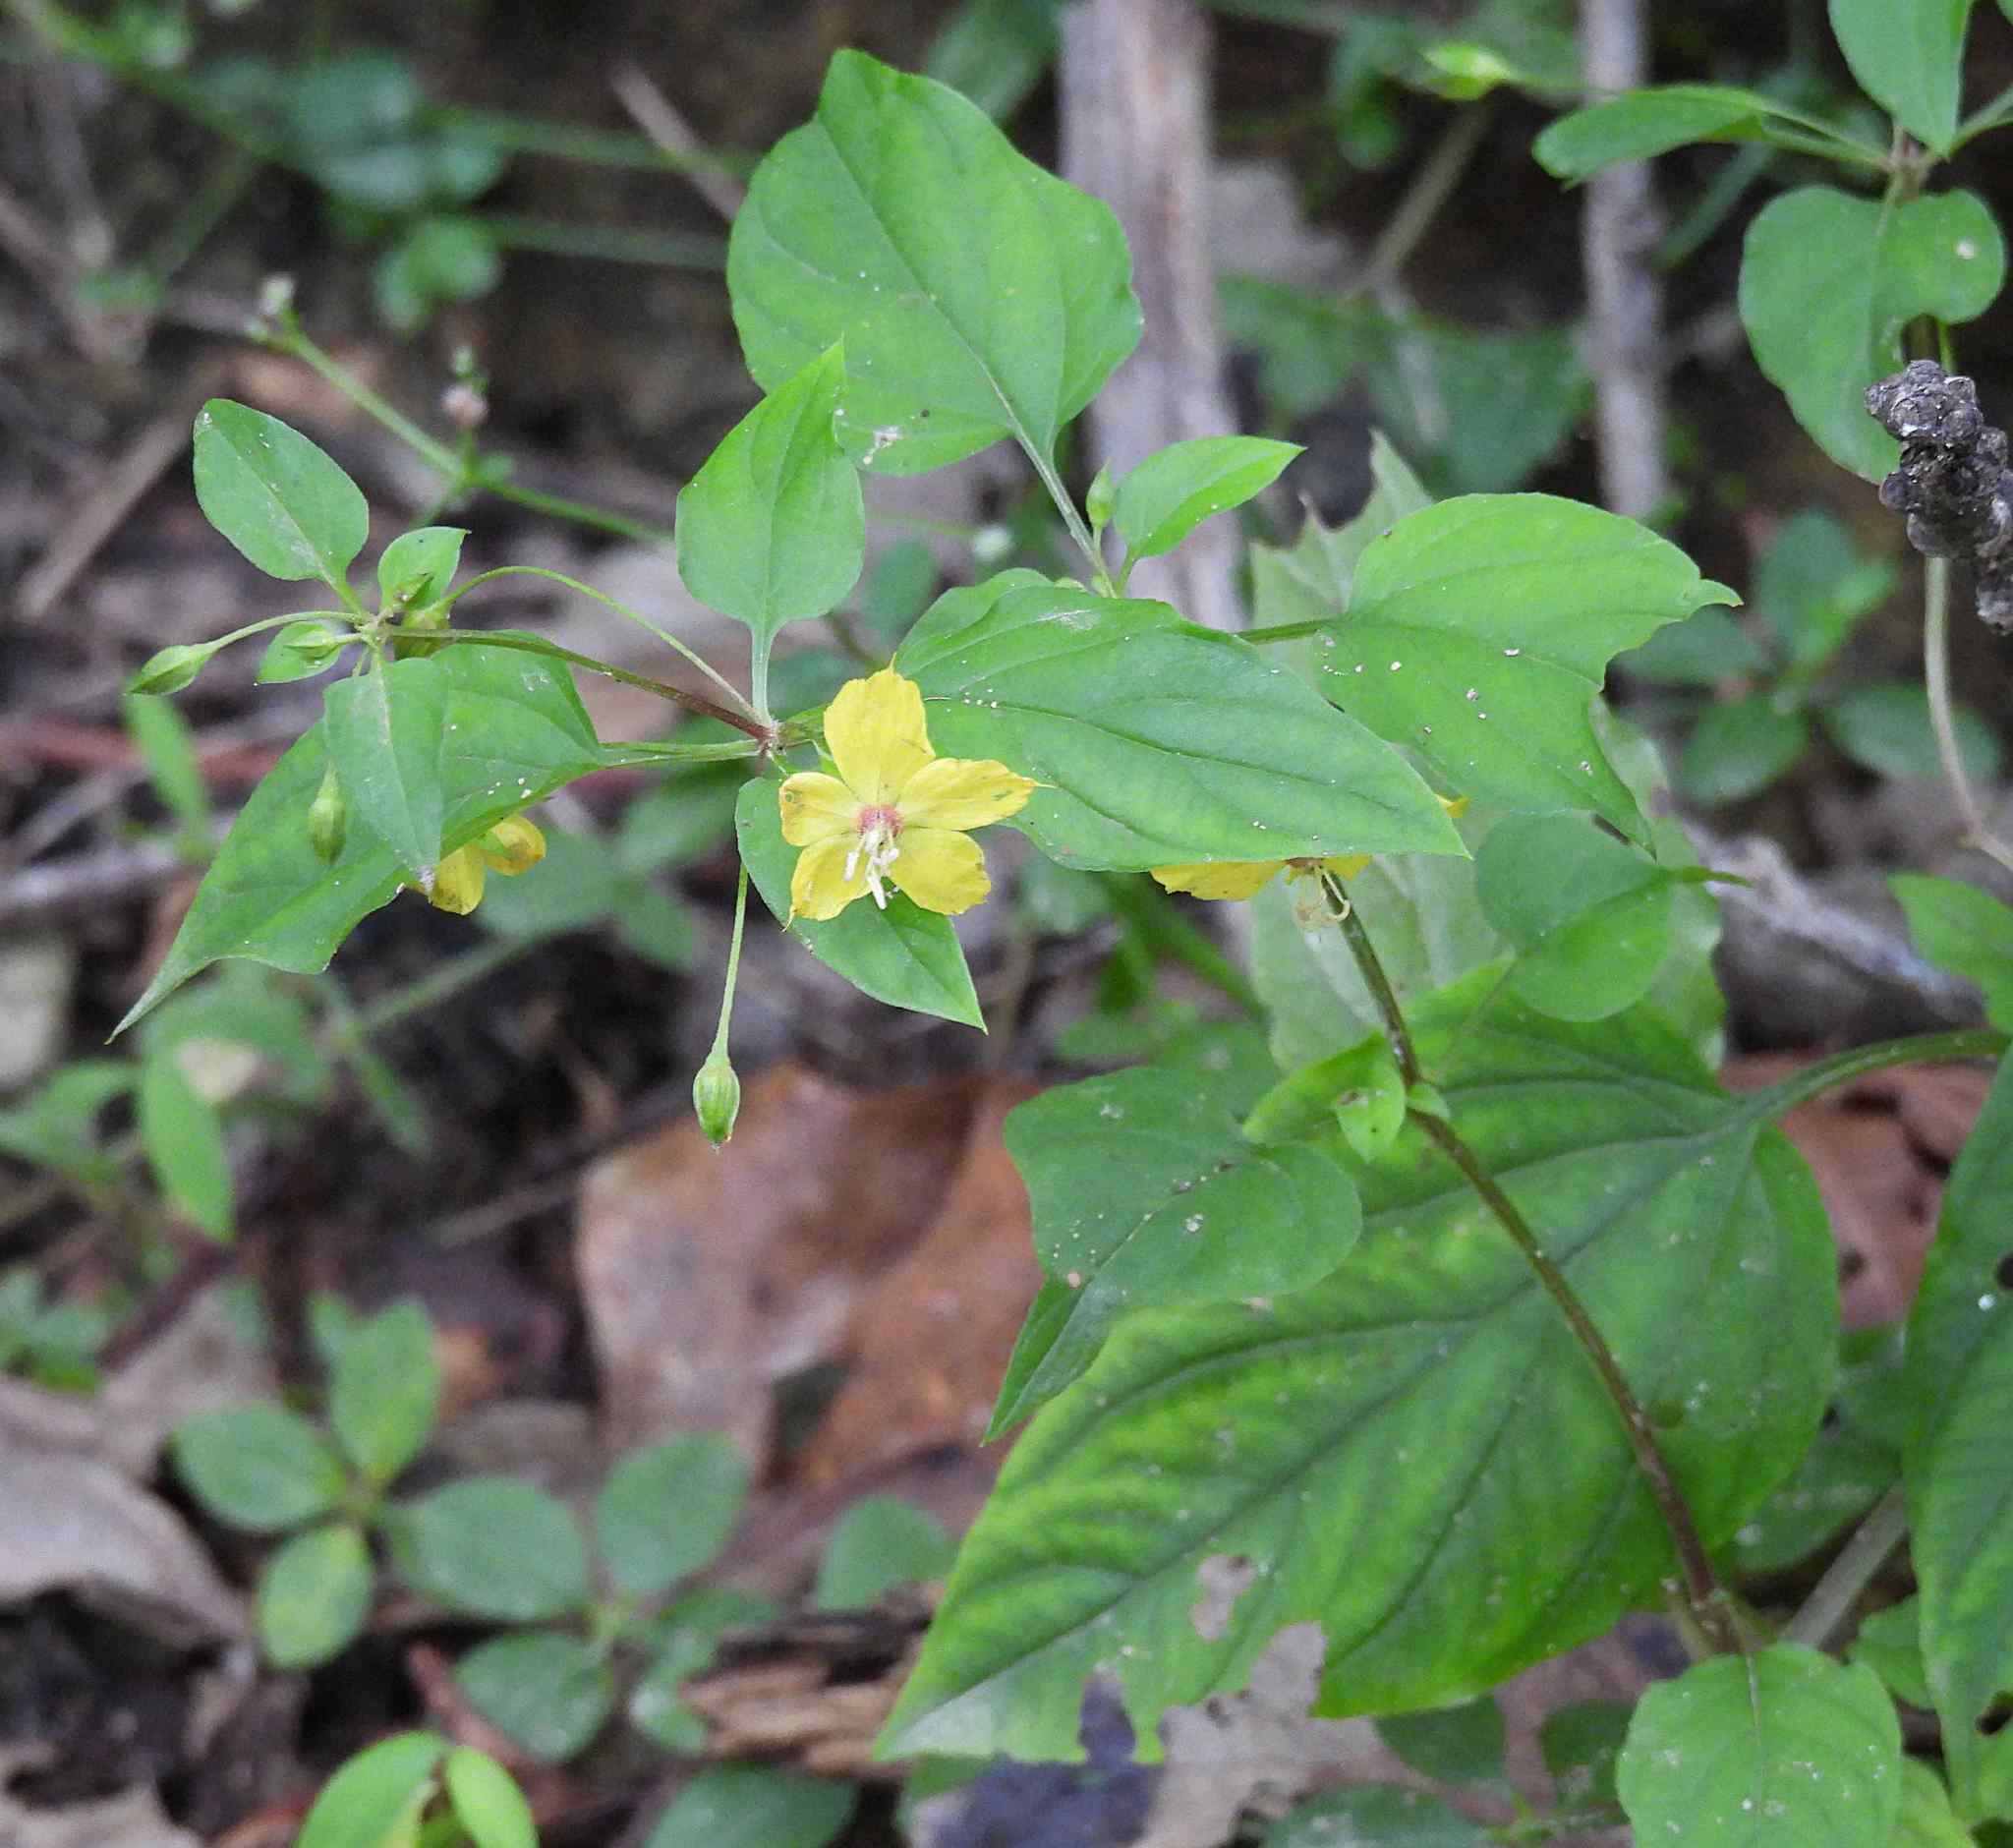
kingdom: Plantae
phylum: Tracheophyta
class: Magnoliopsida
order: Ericales
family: Primulaceae
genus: Lysimachia
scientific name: Lysimachia ciliata
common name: Fringed loosestrife
